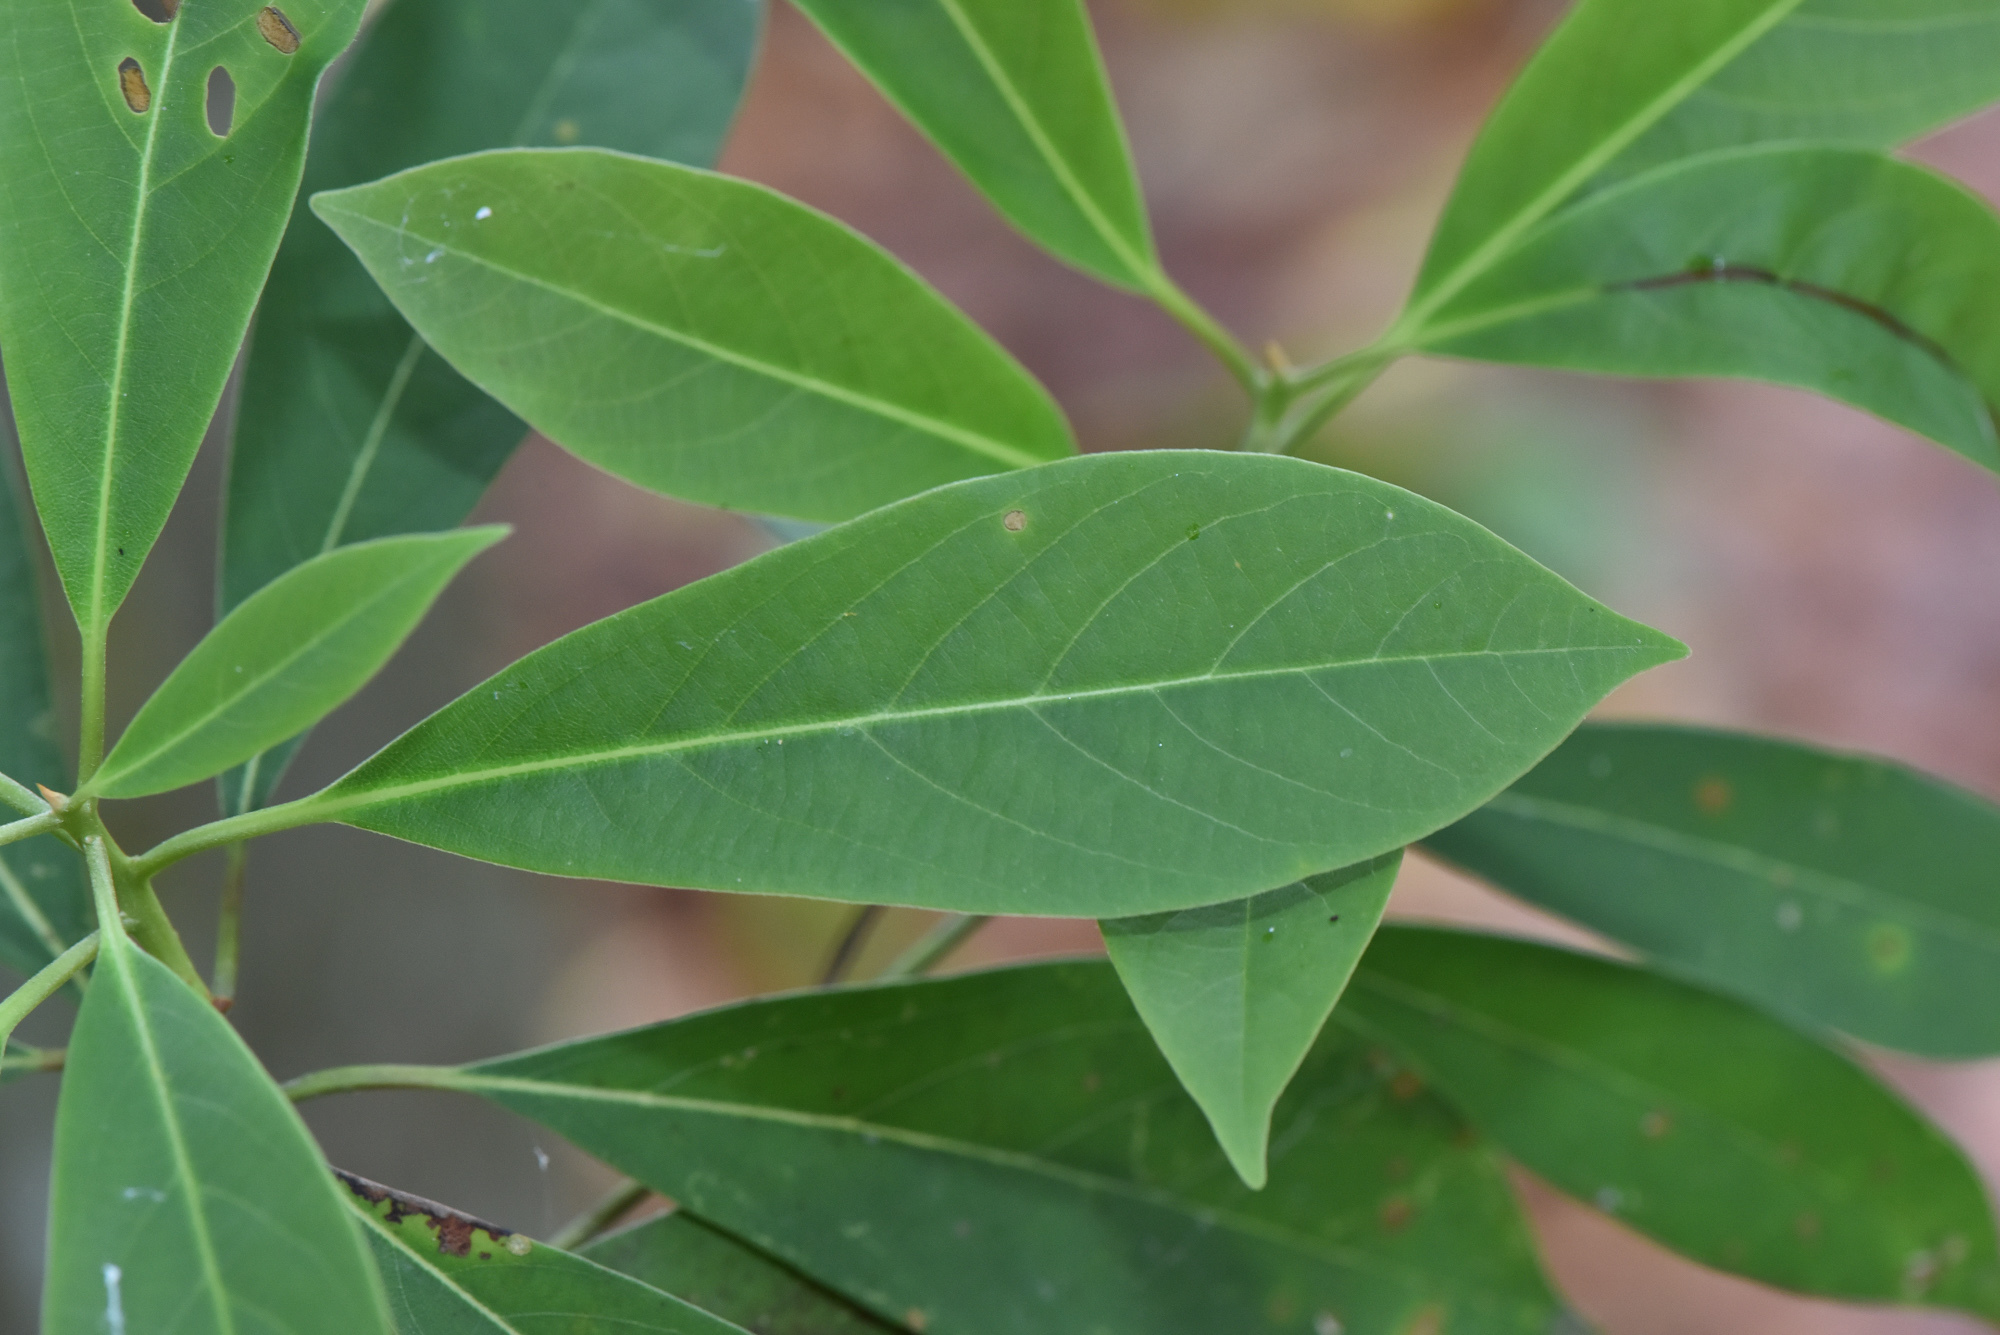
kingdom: Plantae
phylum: Tracheophyta
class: Magnoliopsida
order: Laurales
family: Lauraceae
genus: Machilus
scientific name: Machilus zuihoensis
